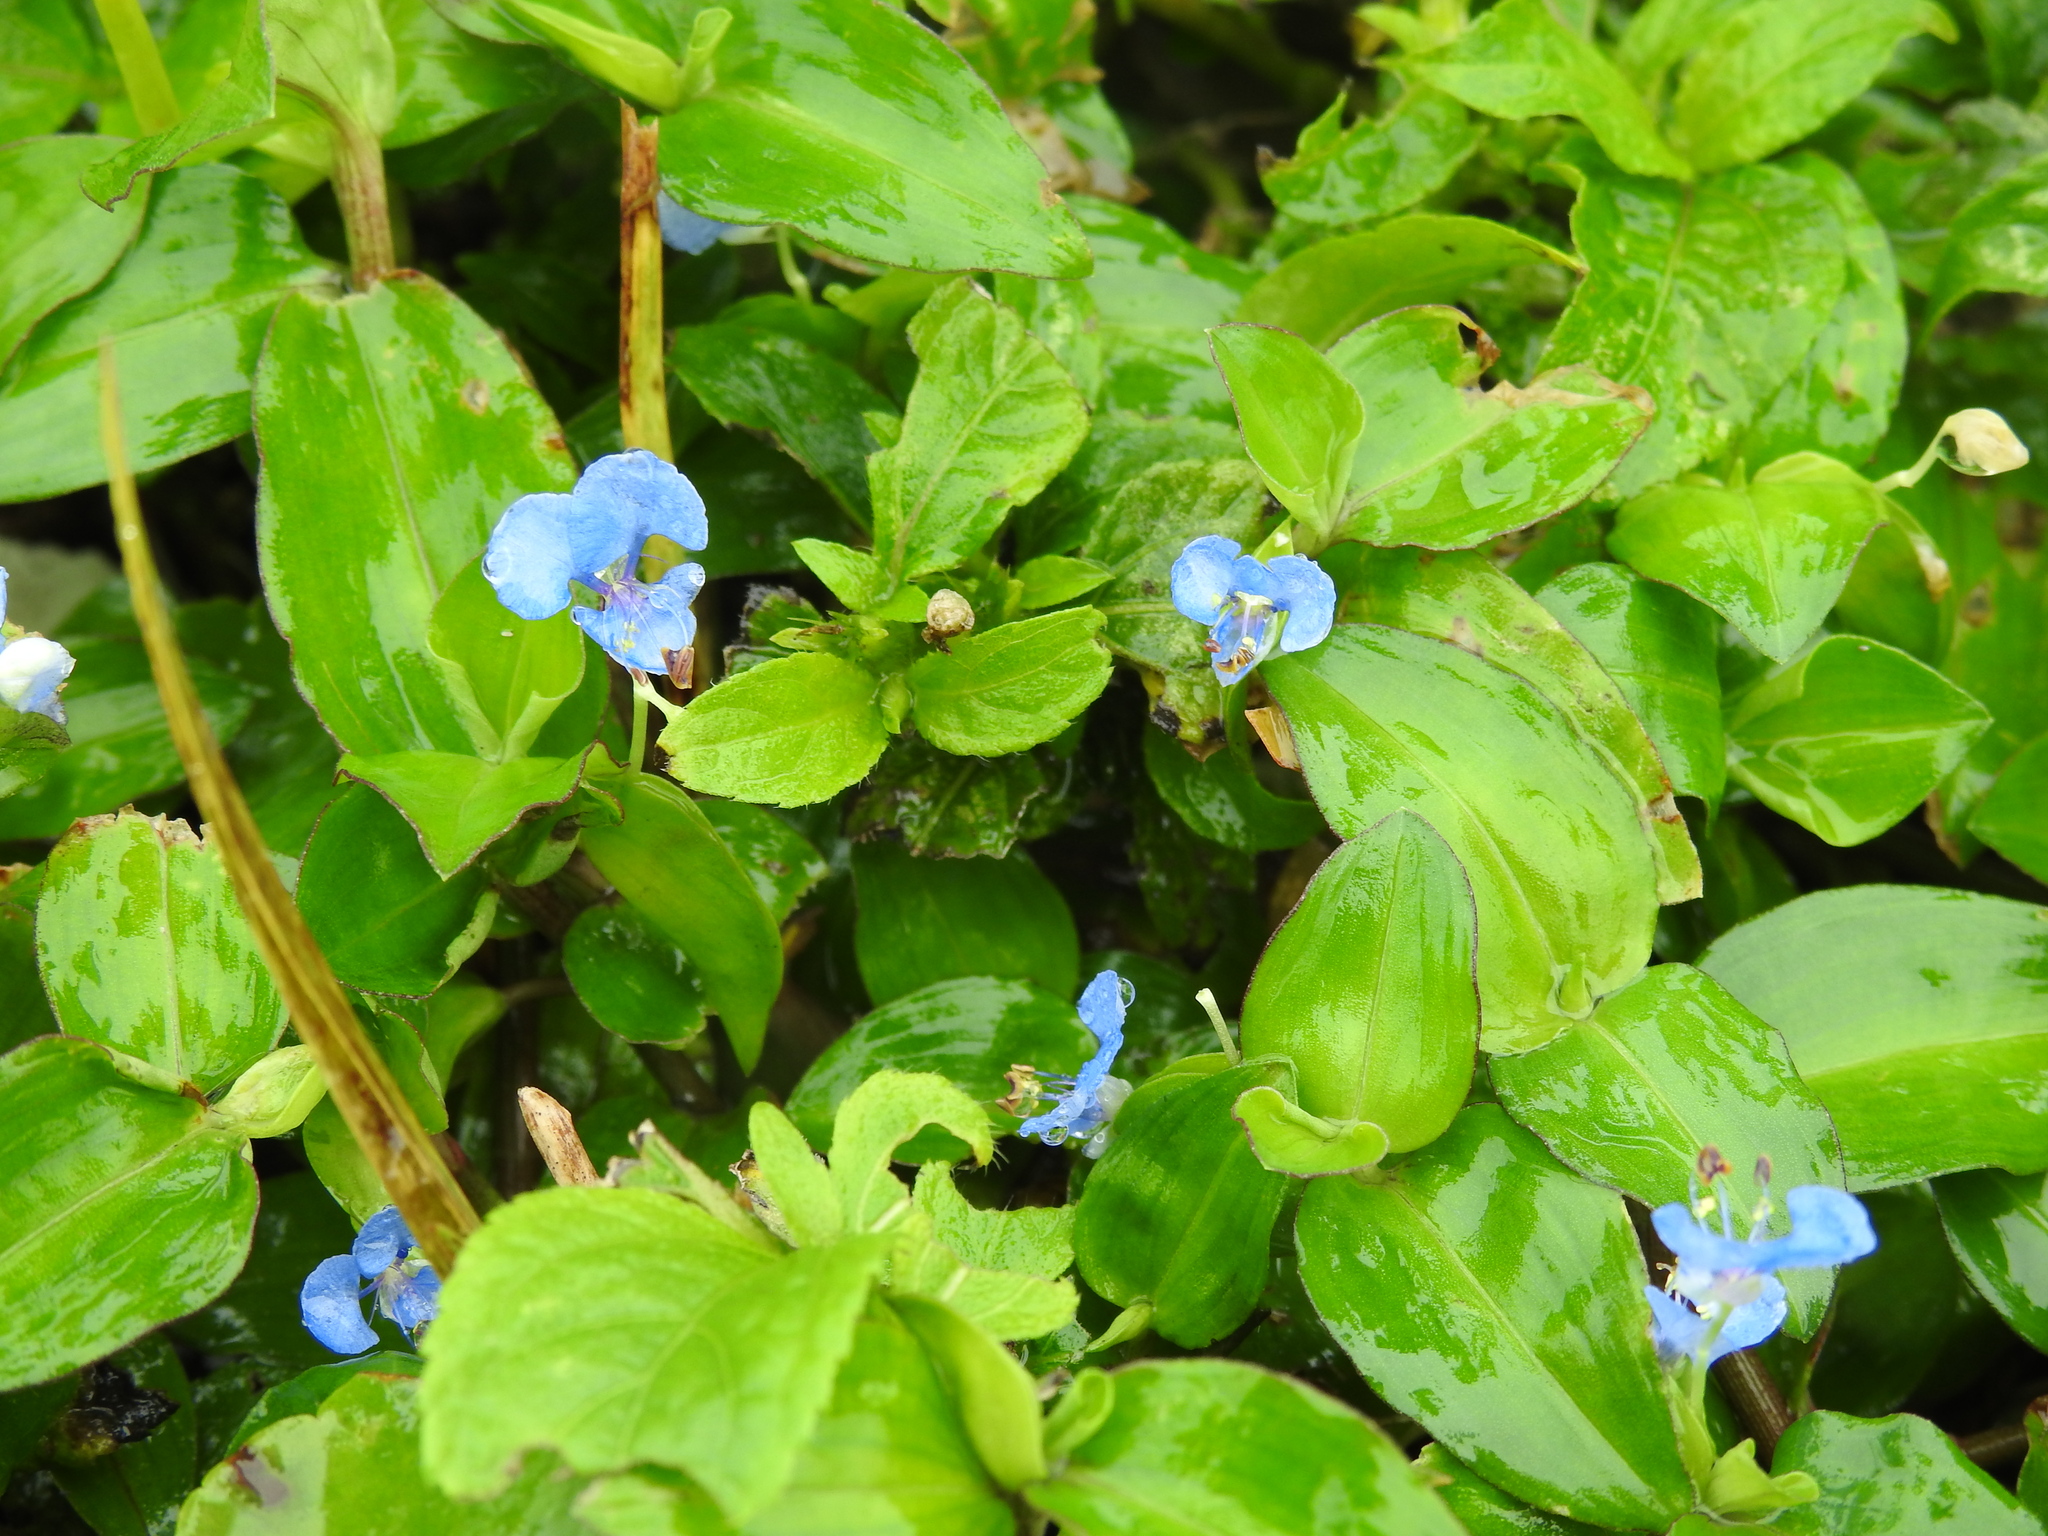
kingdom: Plantae
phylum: Tracheophyta
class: Liliopsida
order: Commelinales
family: Commelinaceae
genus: Commelina
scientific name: Commelina diffusa
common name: Climbing dayflower
